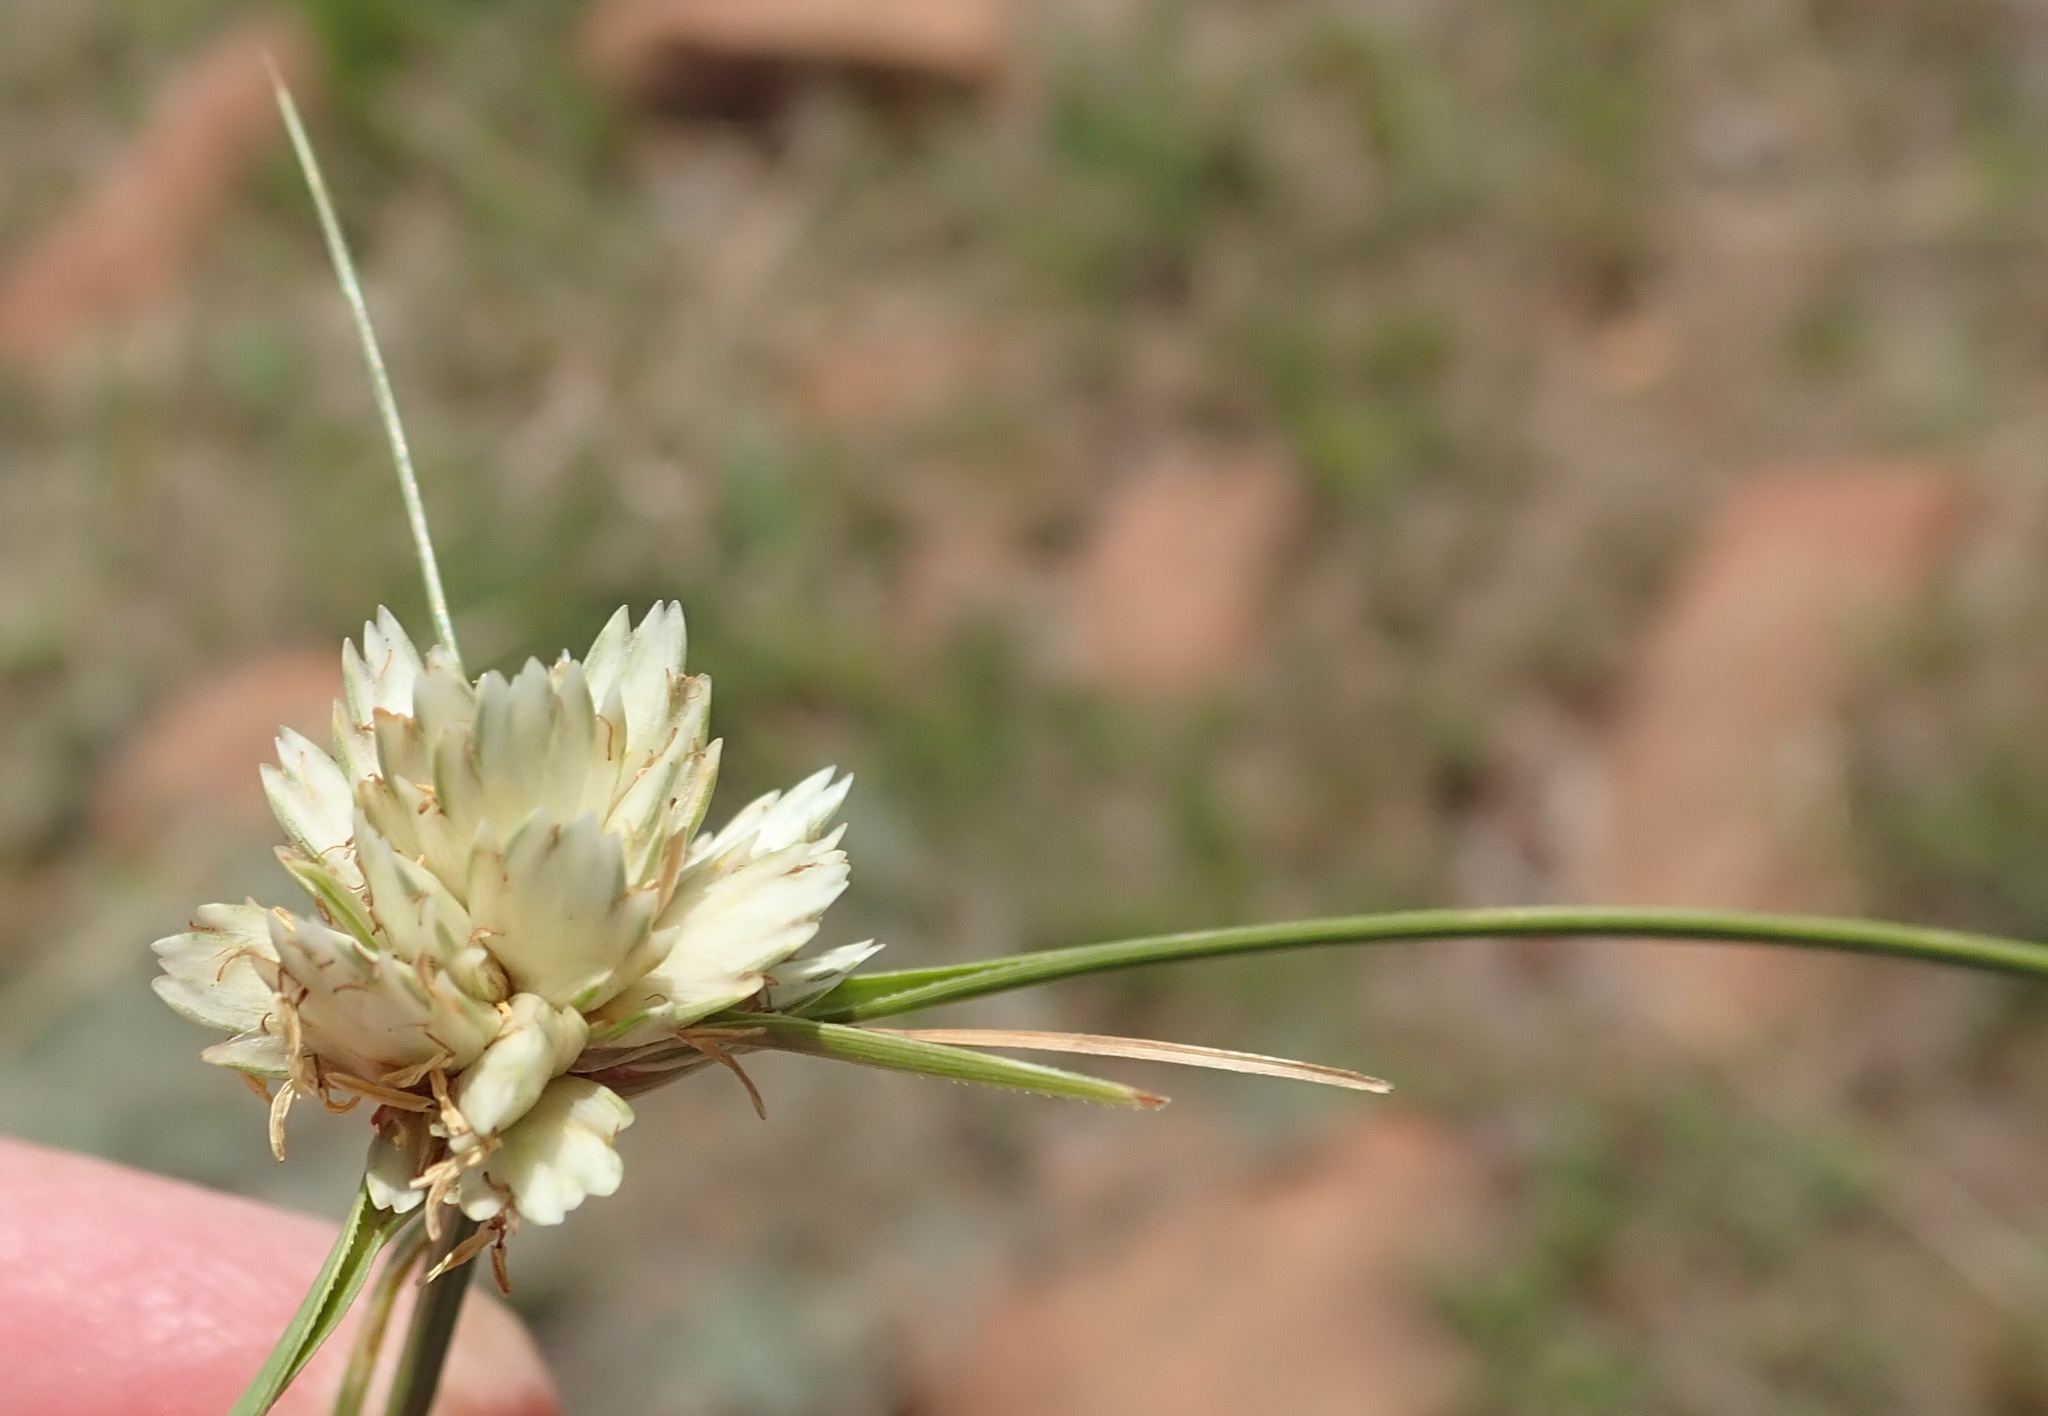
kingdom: Plantae
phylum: Tracheophyta
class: Liliopsida
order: Poales
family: Cyperaceae
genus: Cyperus
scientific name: Cyperus niveus
